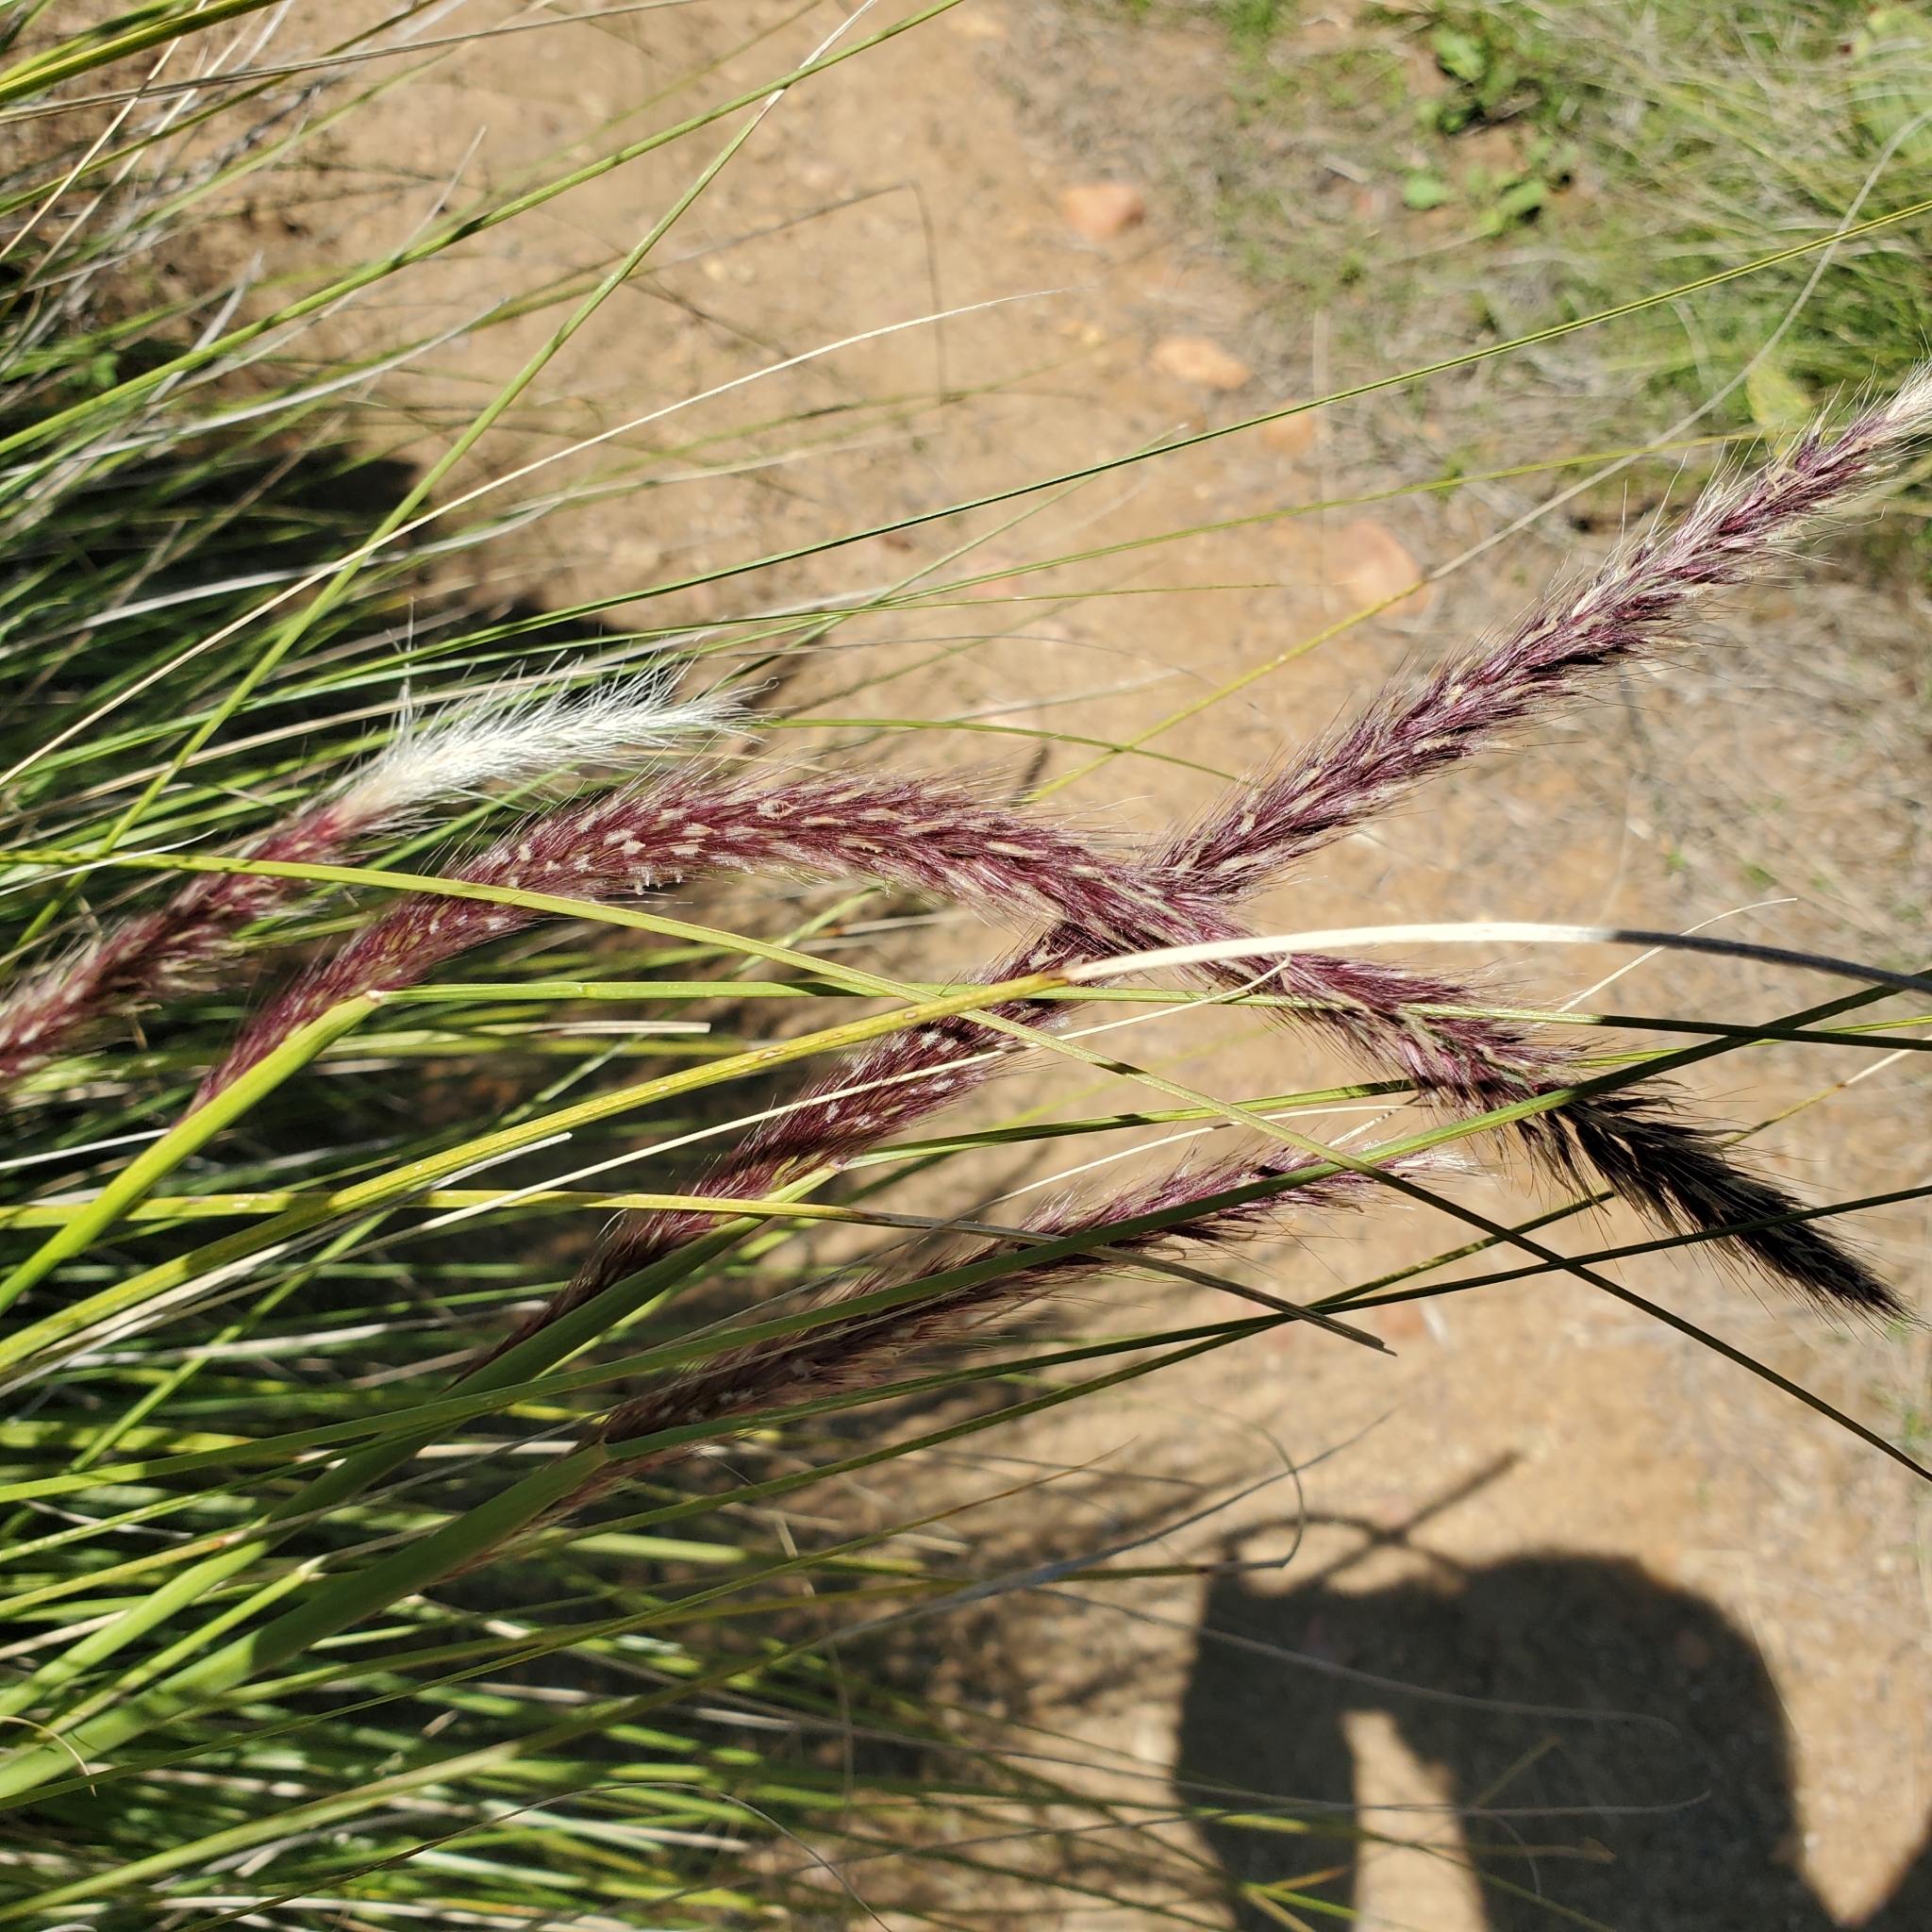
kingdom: Plantae
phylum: Tracheophyta
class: Liliopsida
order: Poales
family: Poaceae
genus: Cenchrus
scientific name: Cenchrus setaceus
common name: Crimson fountaingrass
